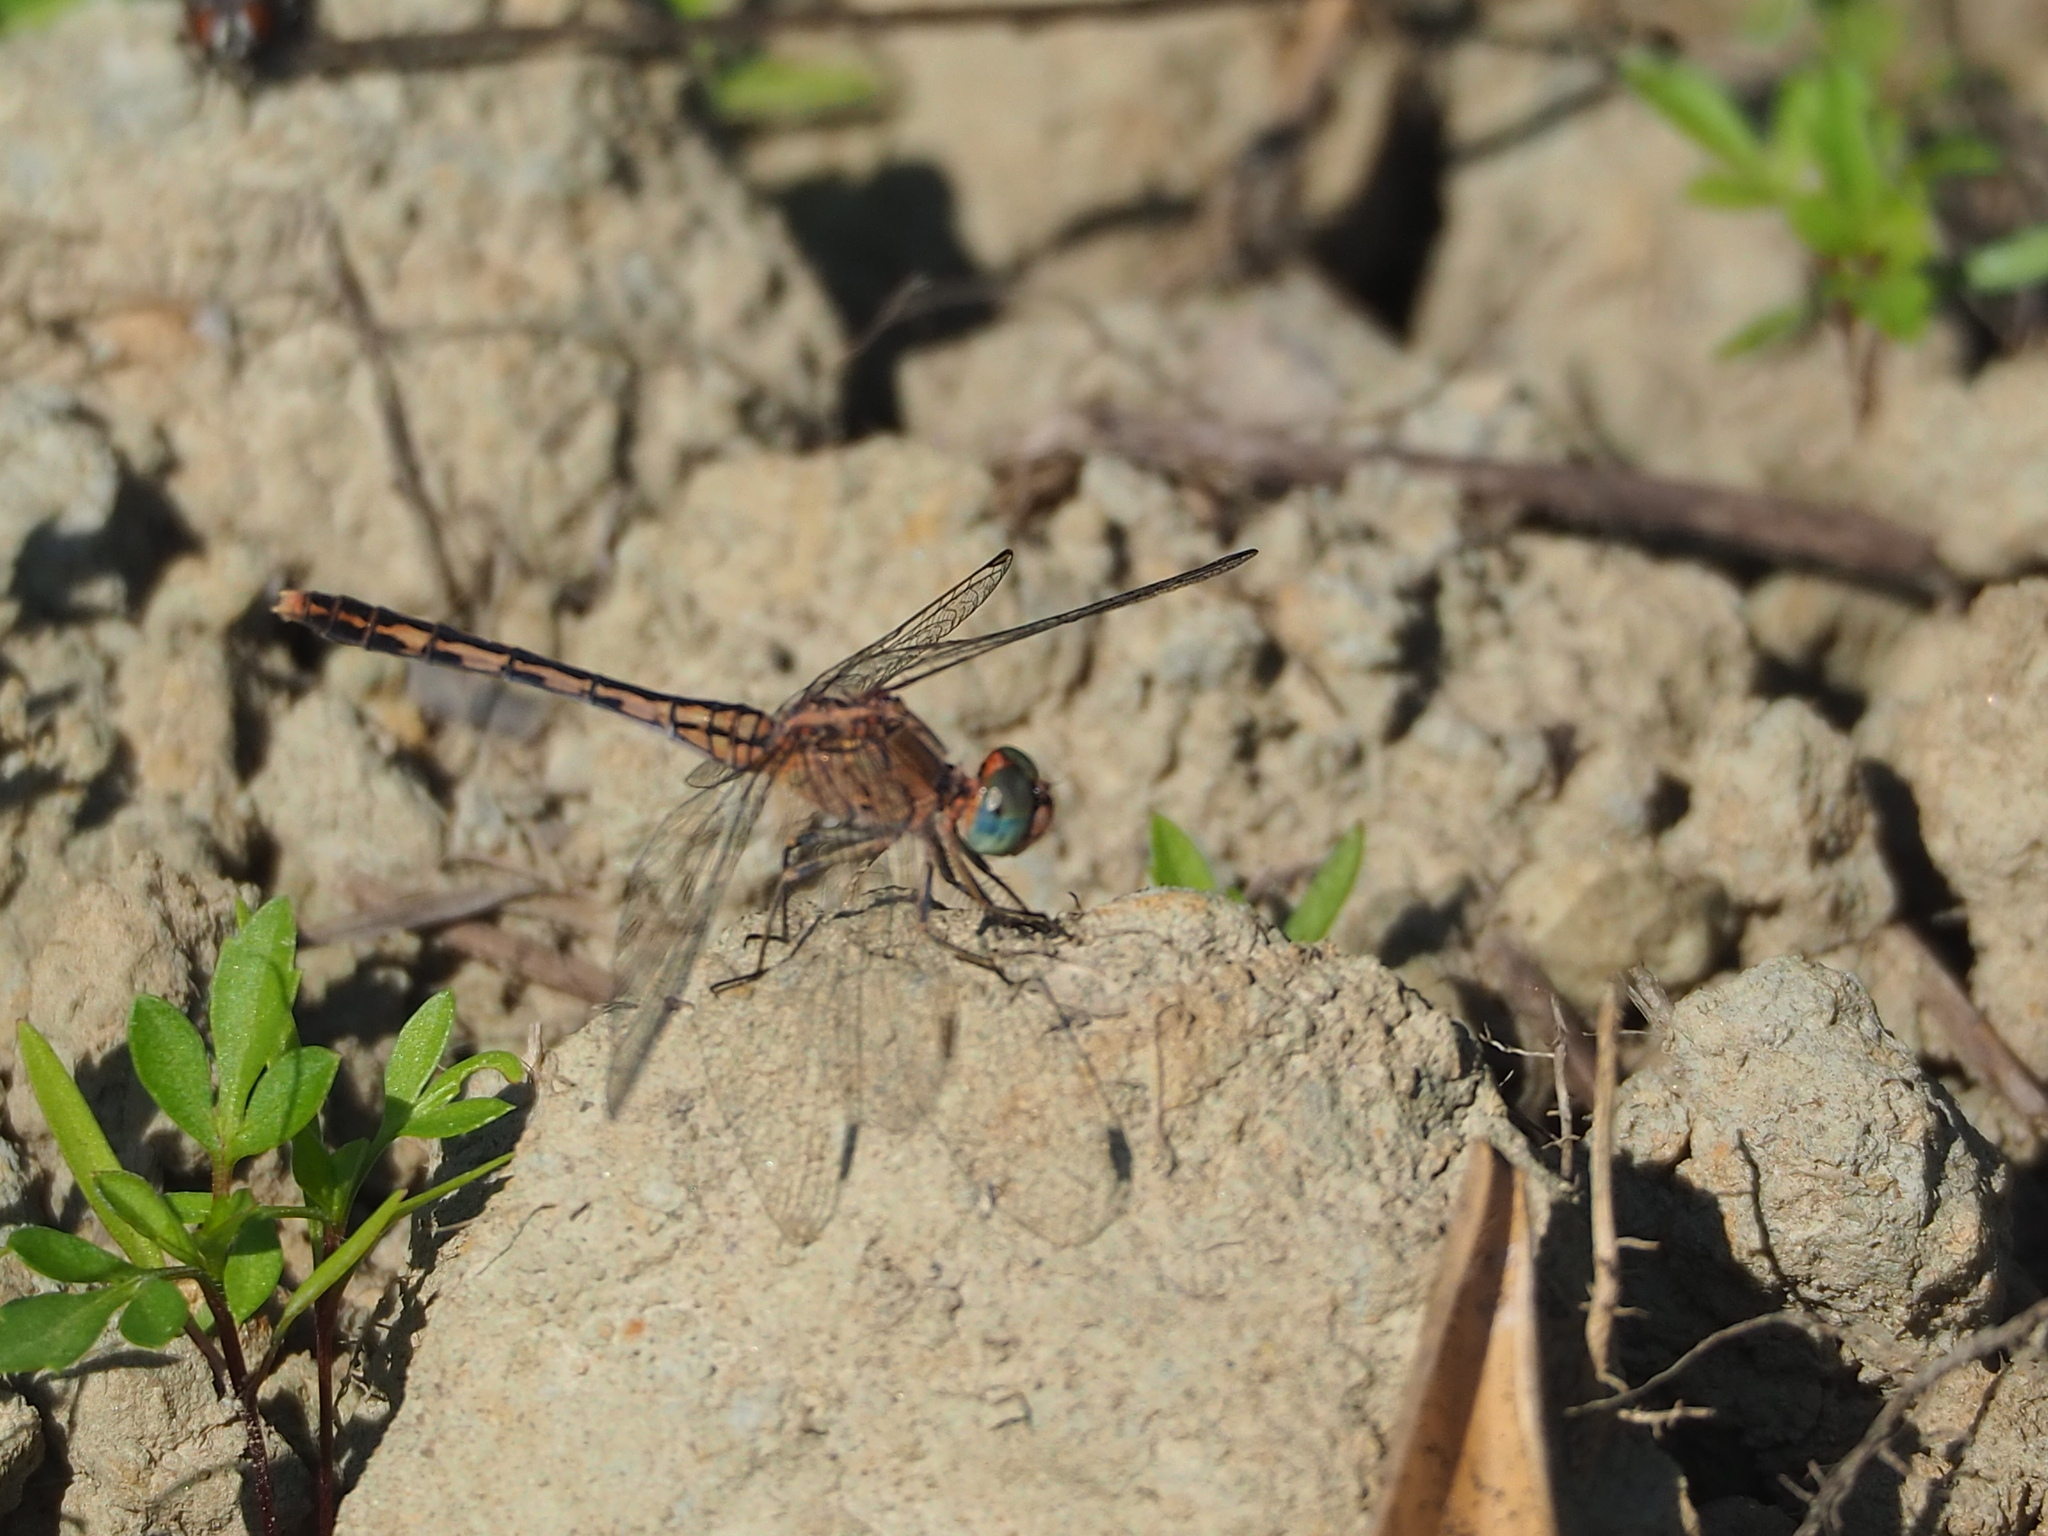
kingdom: Animalia
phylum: Arthropoda
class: Insecta
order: Odonata
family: Libellulidae
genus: Diplacodes
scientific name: Diplacodes trivialis
